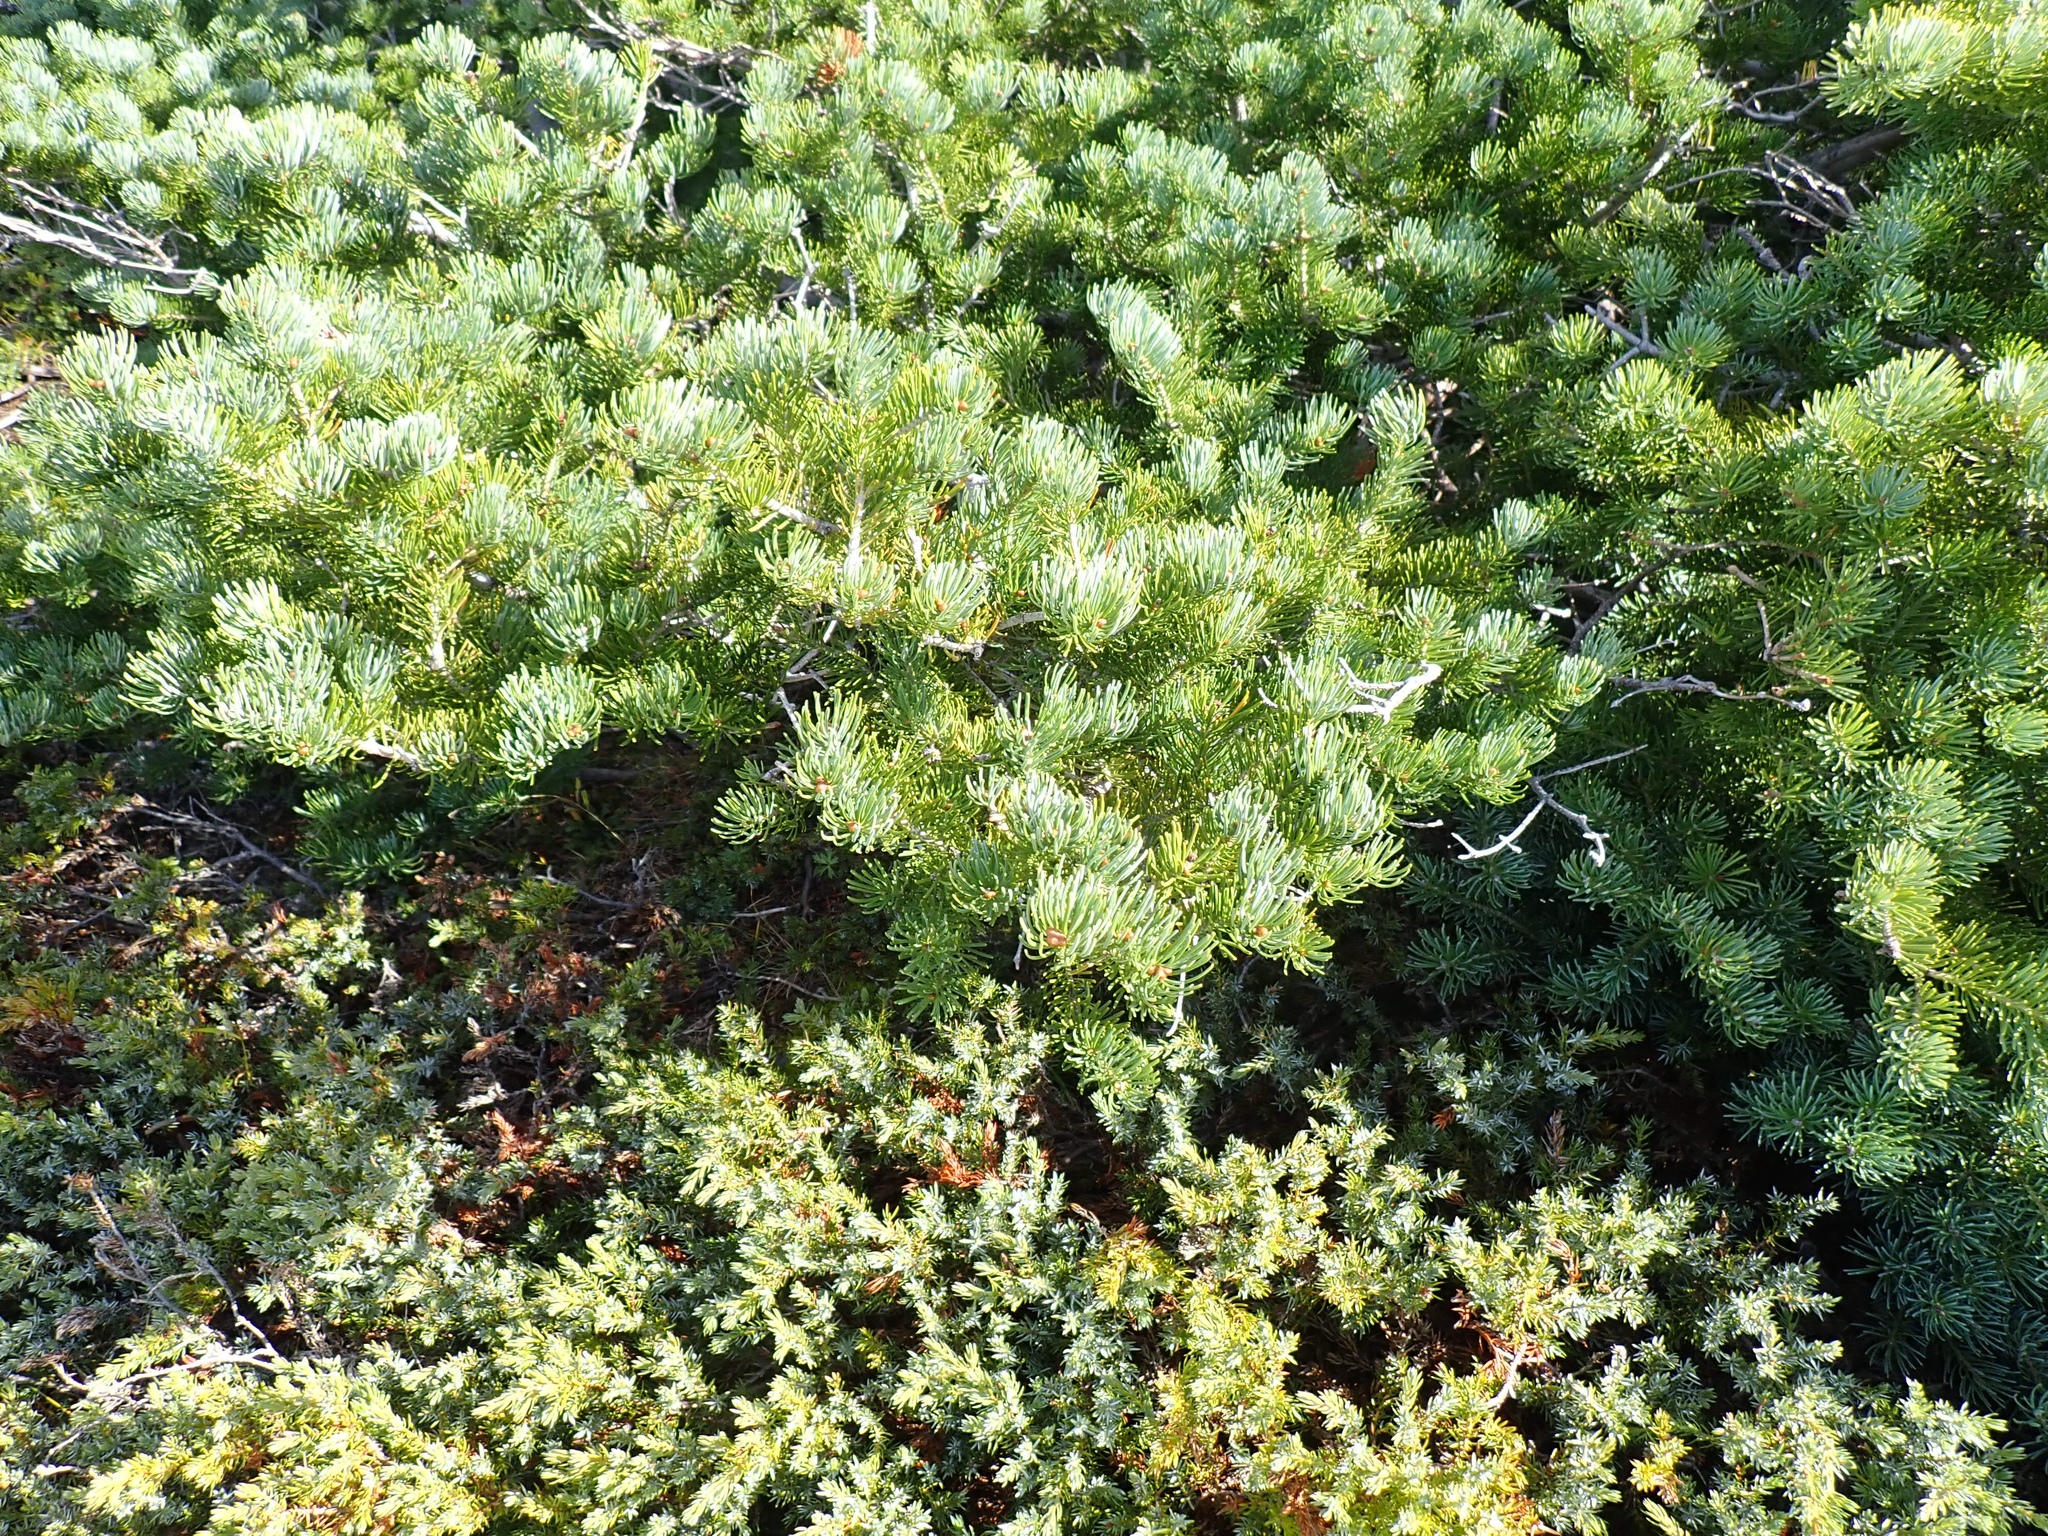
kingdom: Plantae
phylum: Tracheophyta
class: Pinopsida
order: Pinales
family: Pinaceae
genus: Abies
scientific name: Abies lasiocarpa
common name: Subalpine fir
